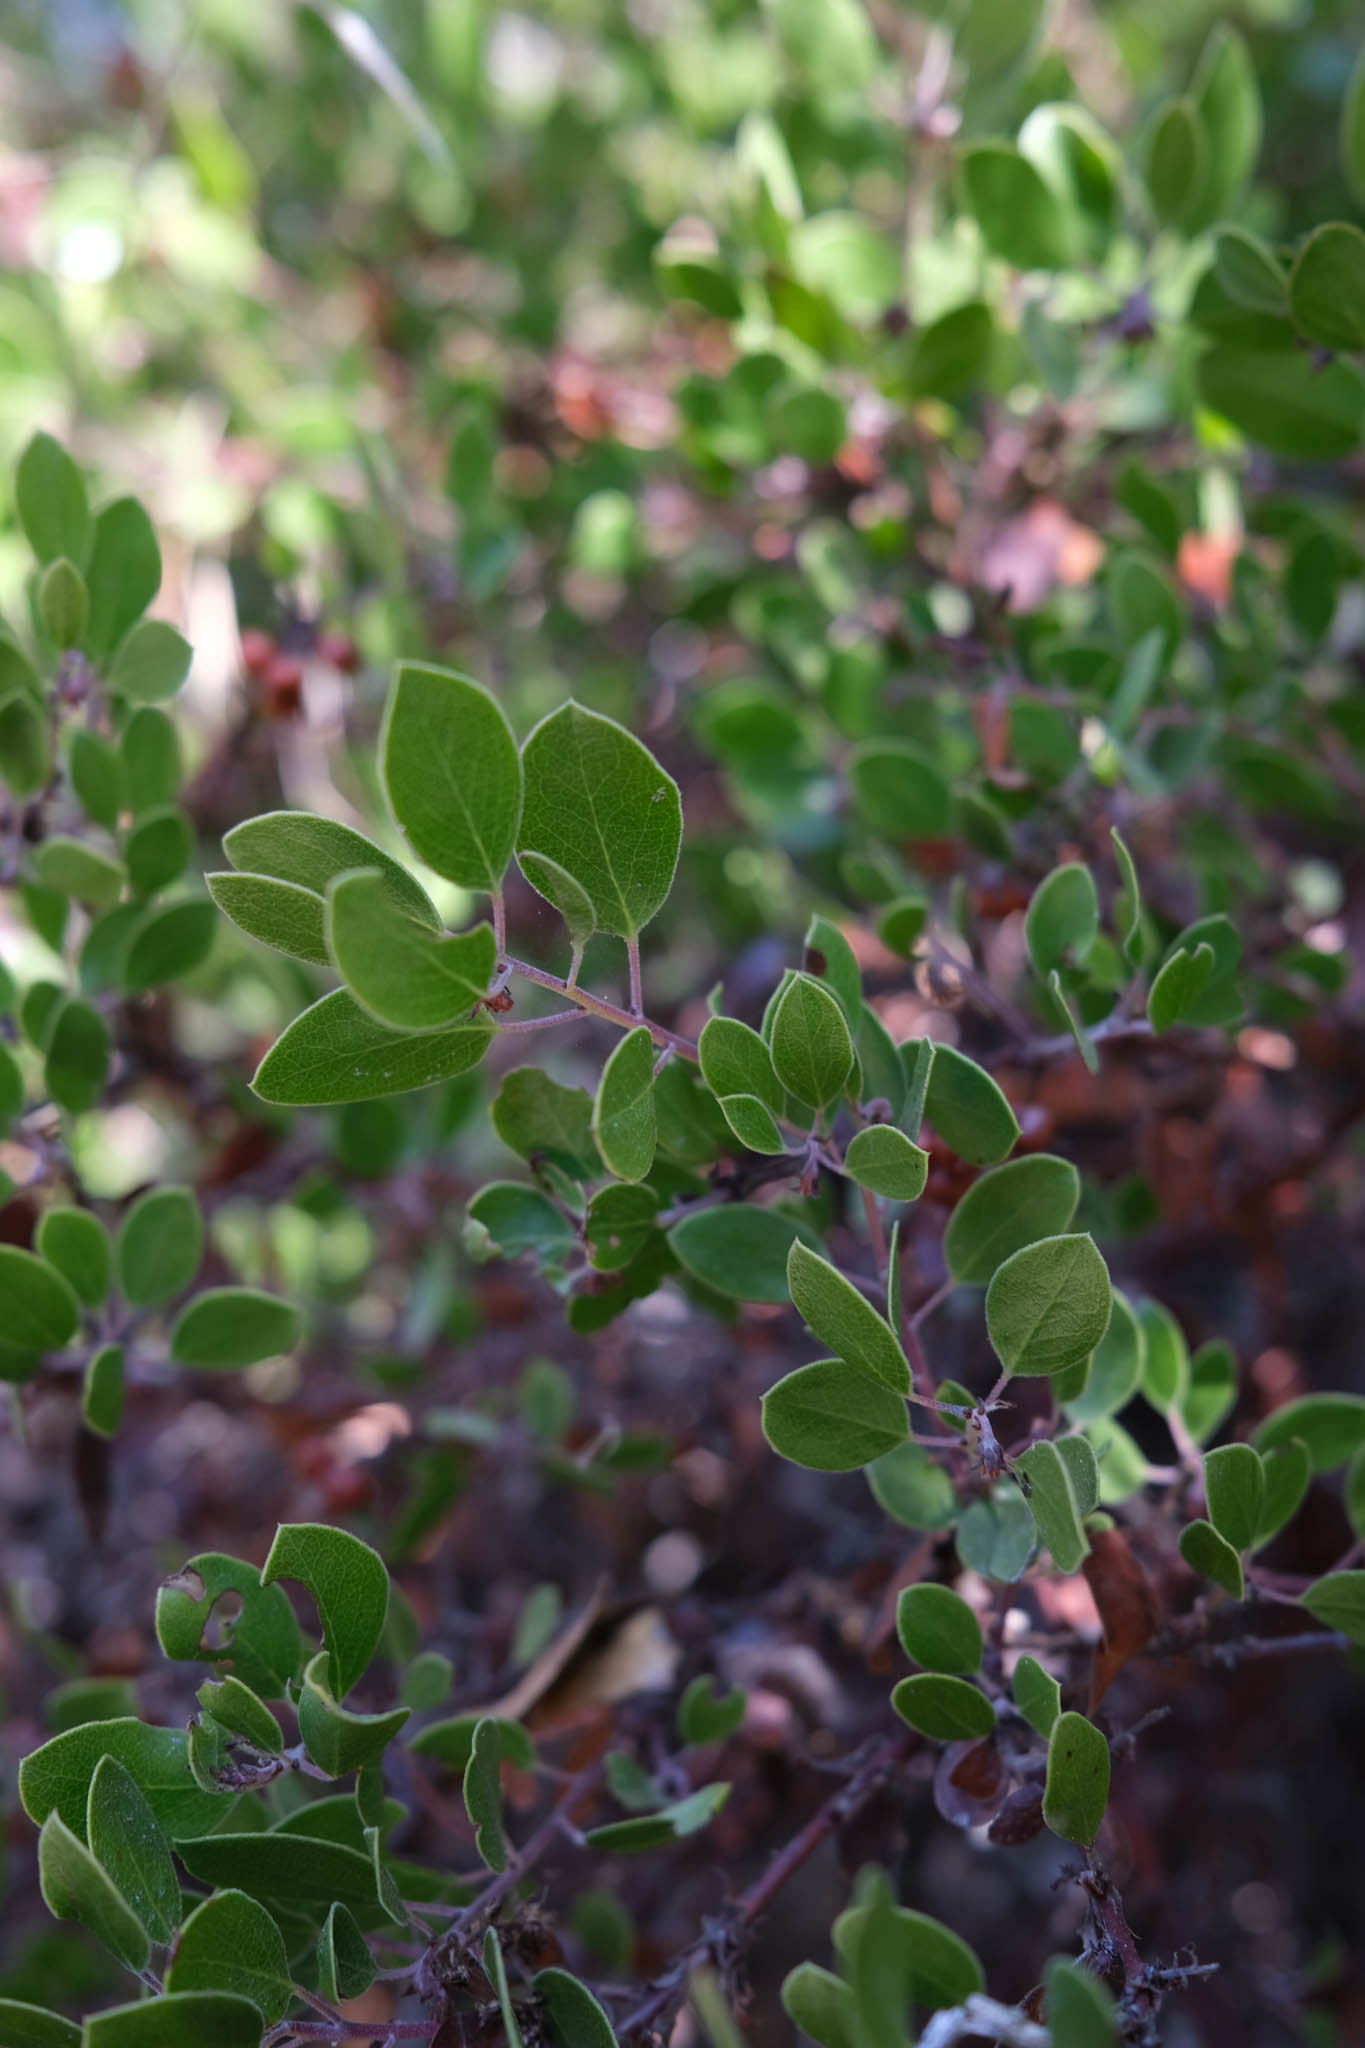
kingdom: Plantae
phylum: Tracheophyta
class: Magnoliopsida
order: Ericales
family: Ericaceae
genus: Arctostaphylos
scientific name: Arctostaphylos hookeri
